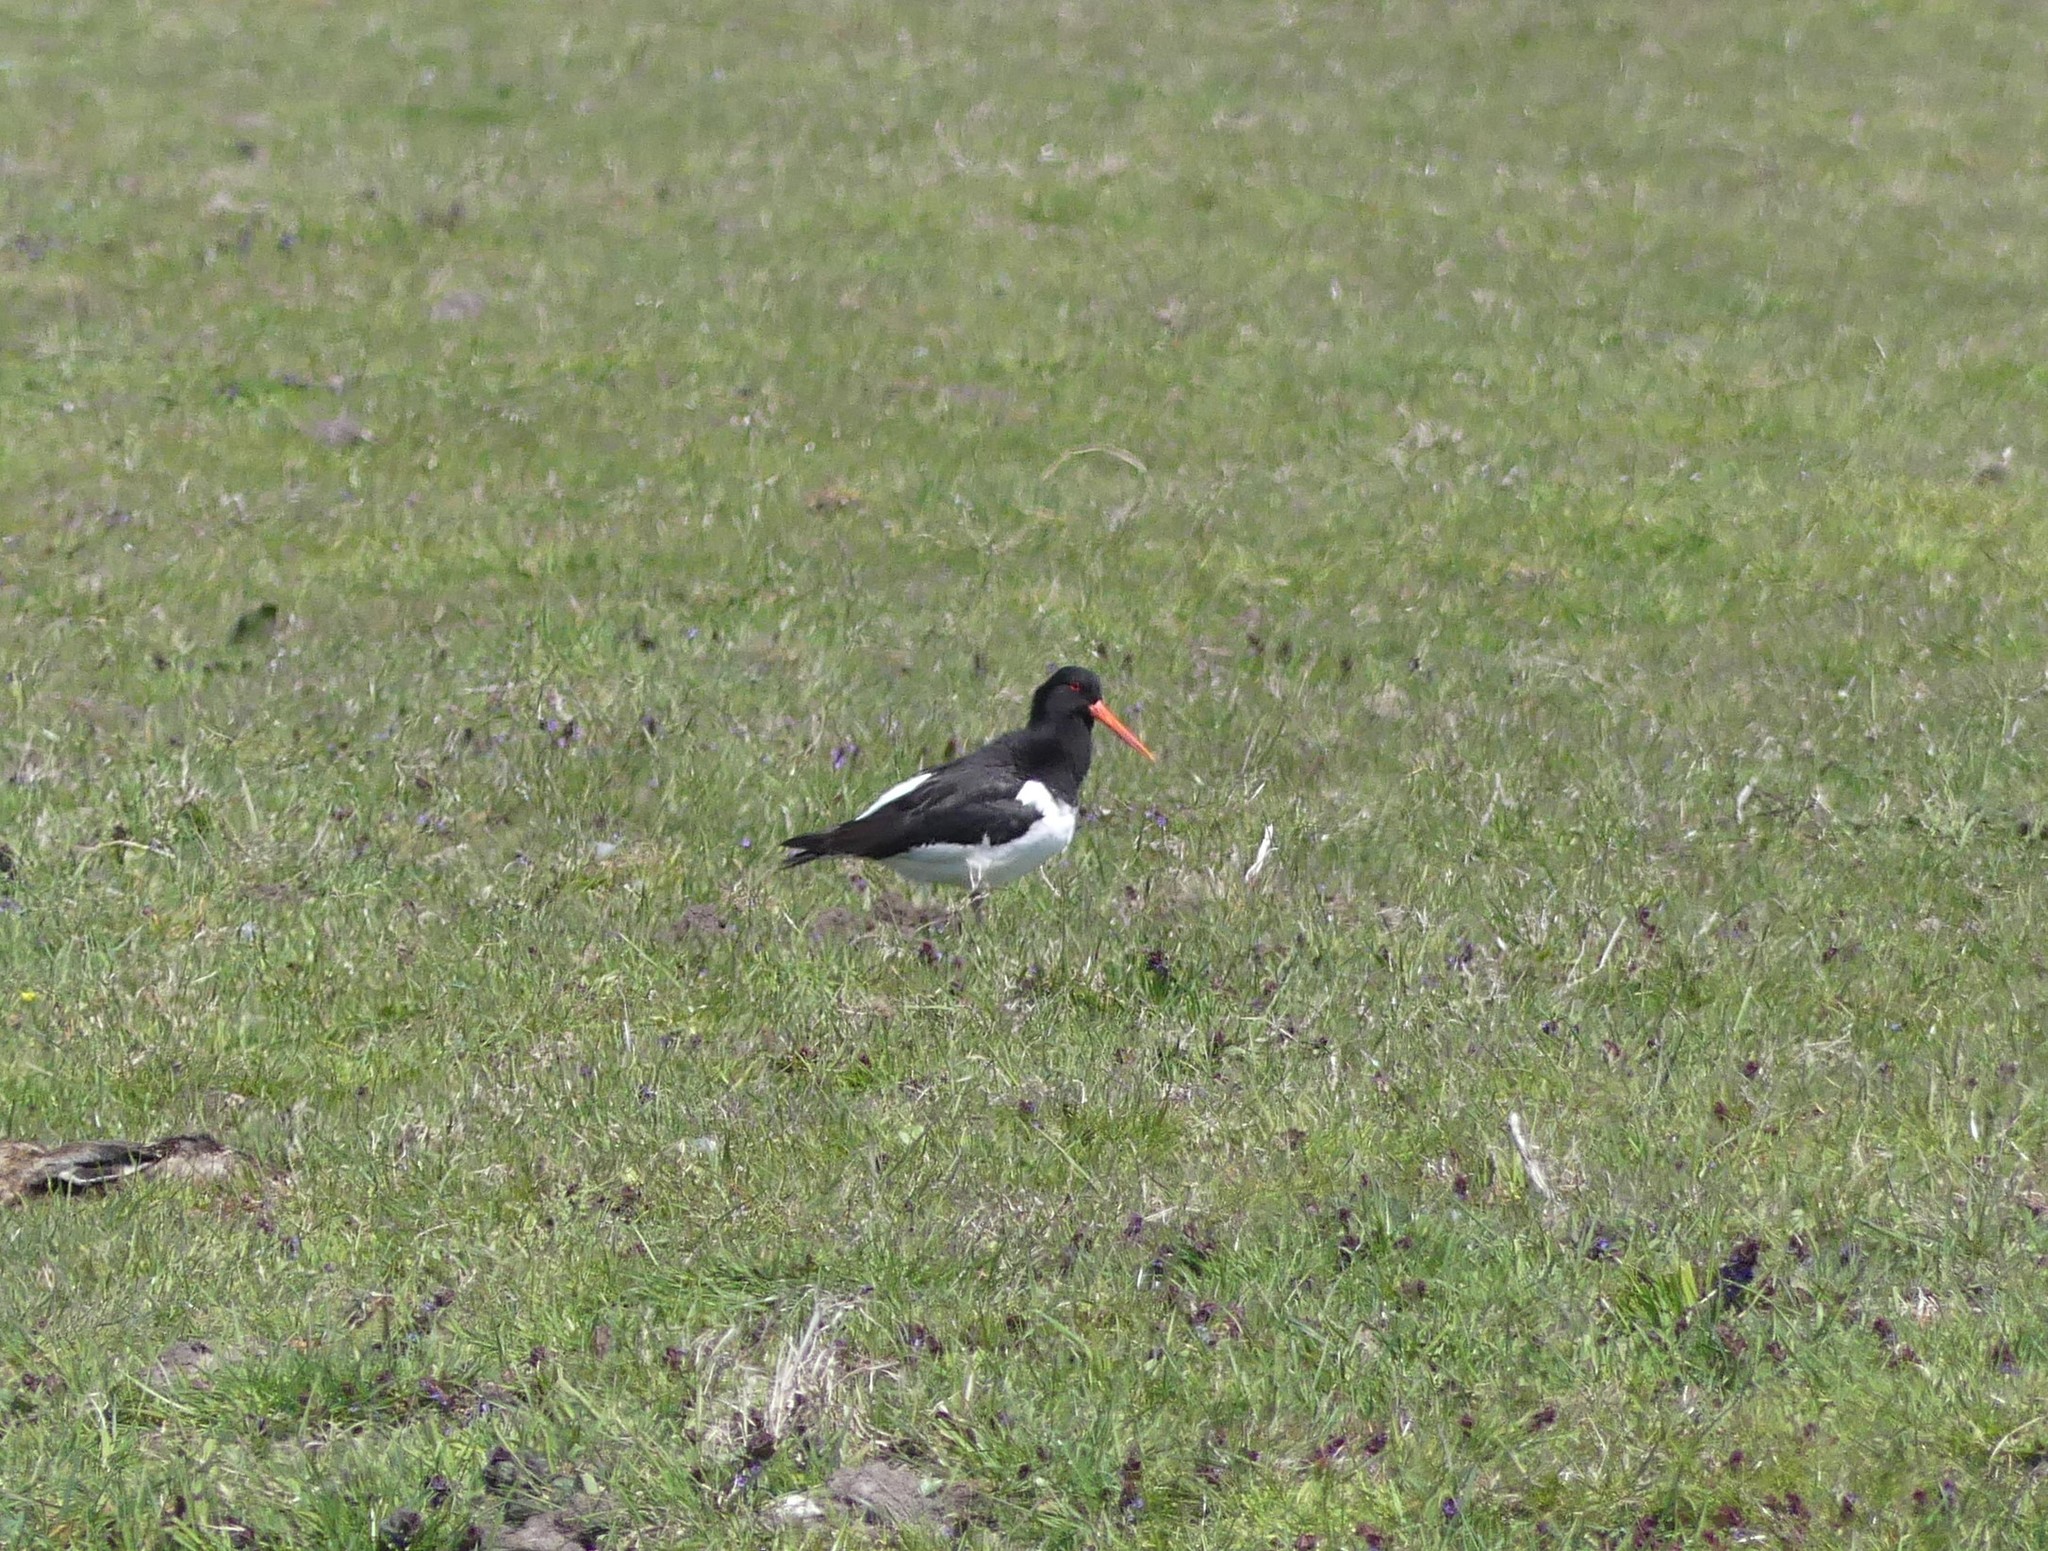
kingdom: Animalia
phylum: Chordata
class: Aves
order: Charadriiformes
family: Haematopodidae
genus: Haematopus
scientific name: Haematopus ostralegus
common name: Eurasian oystercatcher
